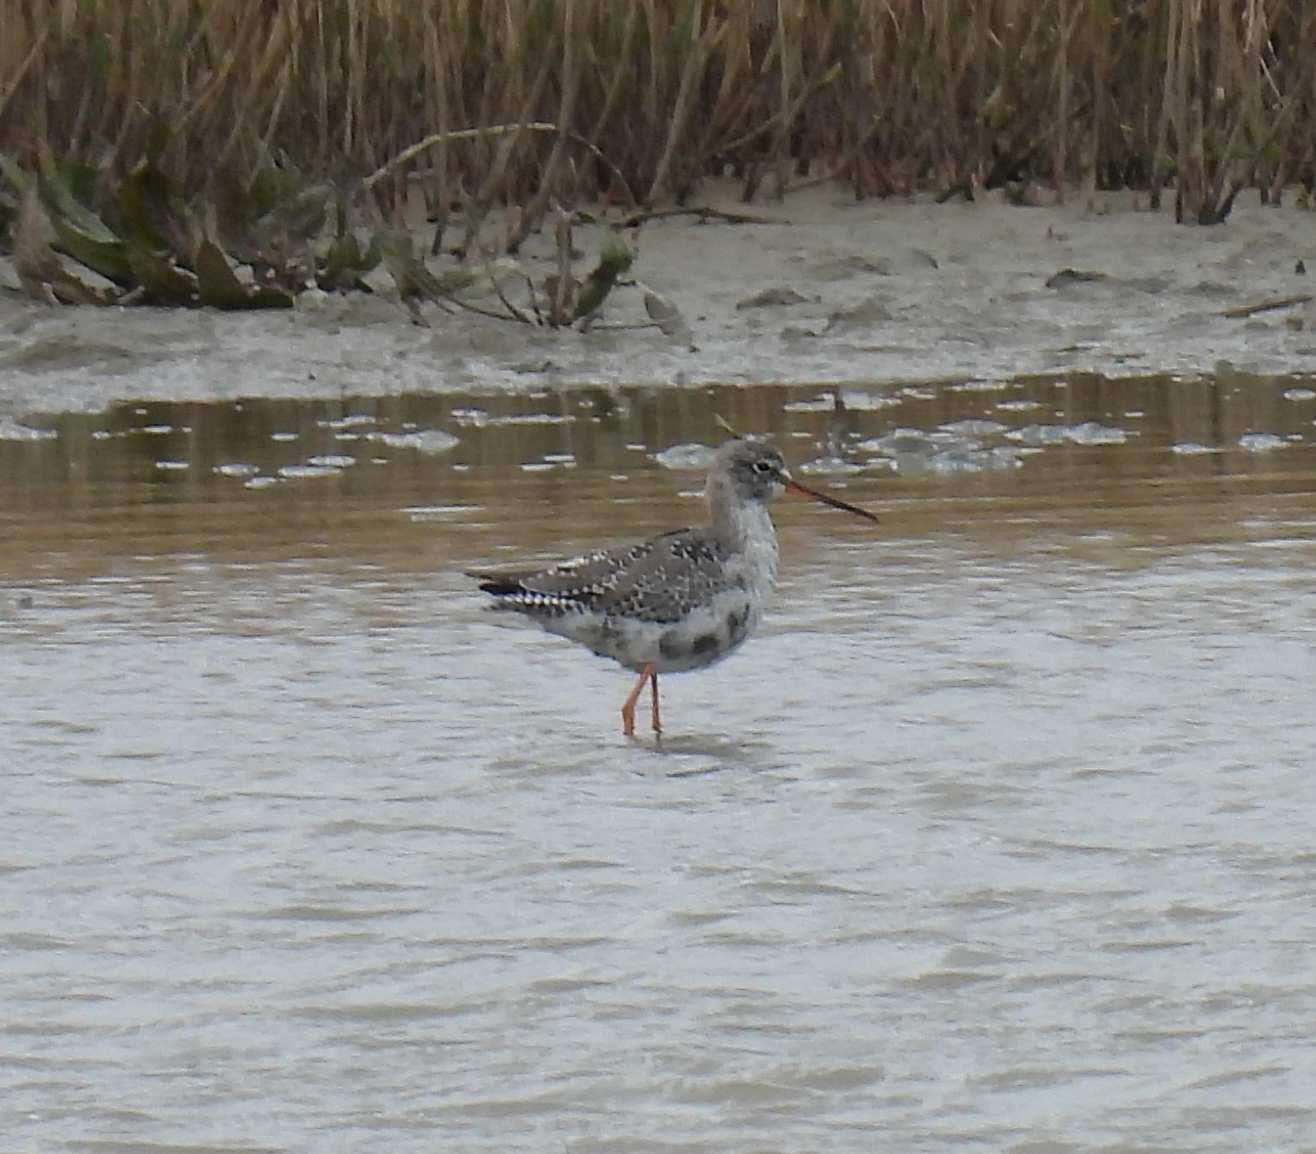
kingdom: Animalia
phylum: Chordata
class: Aves
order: Charadriiformes
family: Scolopacidae
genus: Tringa
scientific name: Tringa erythropus
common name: Spotted redshank
